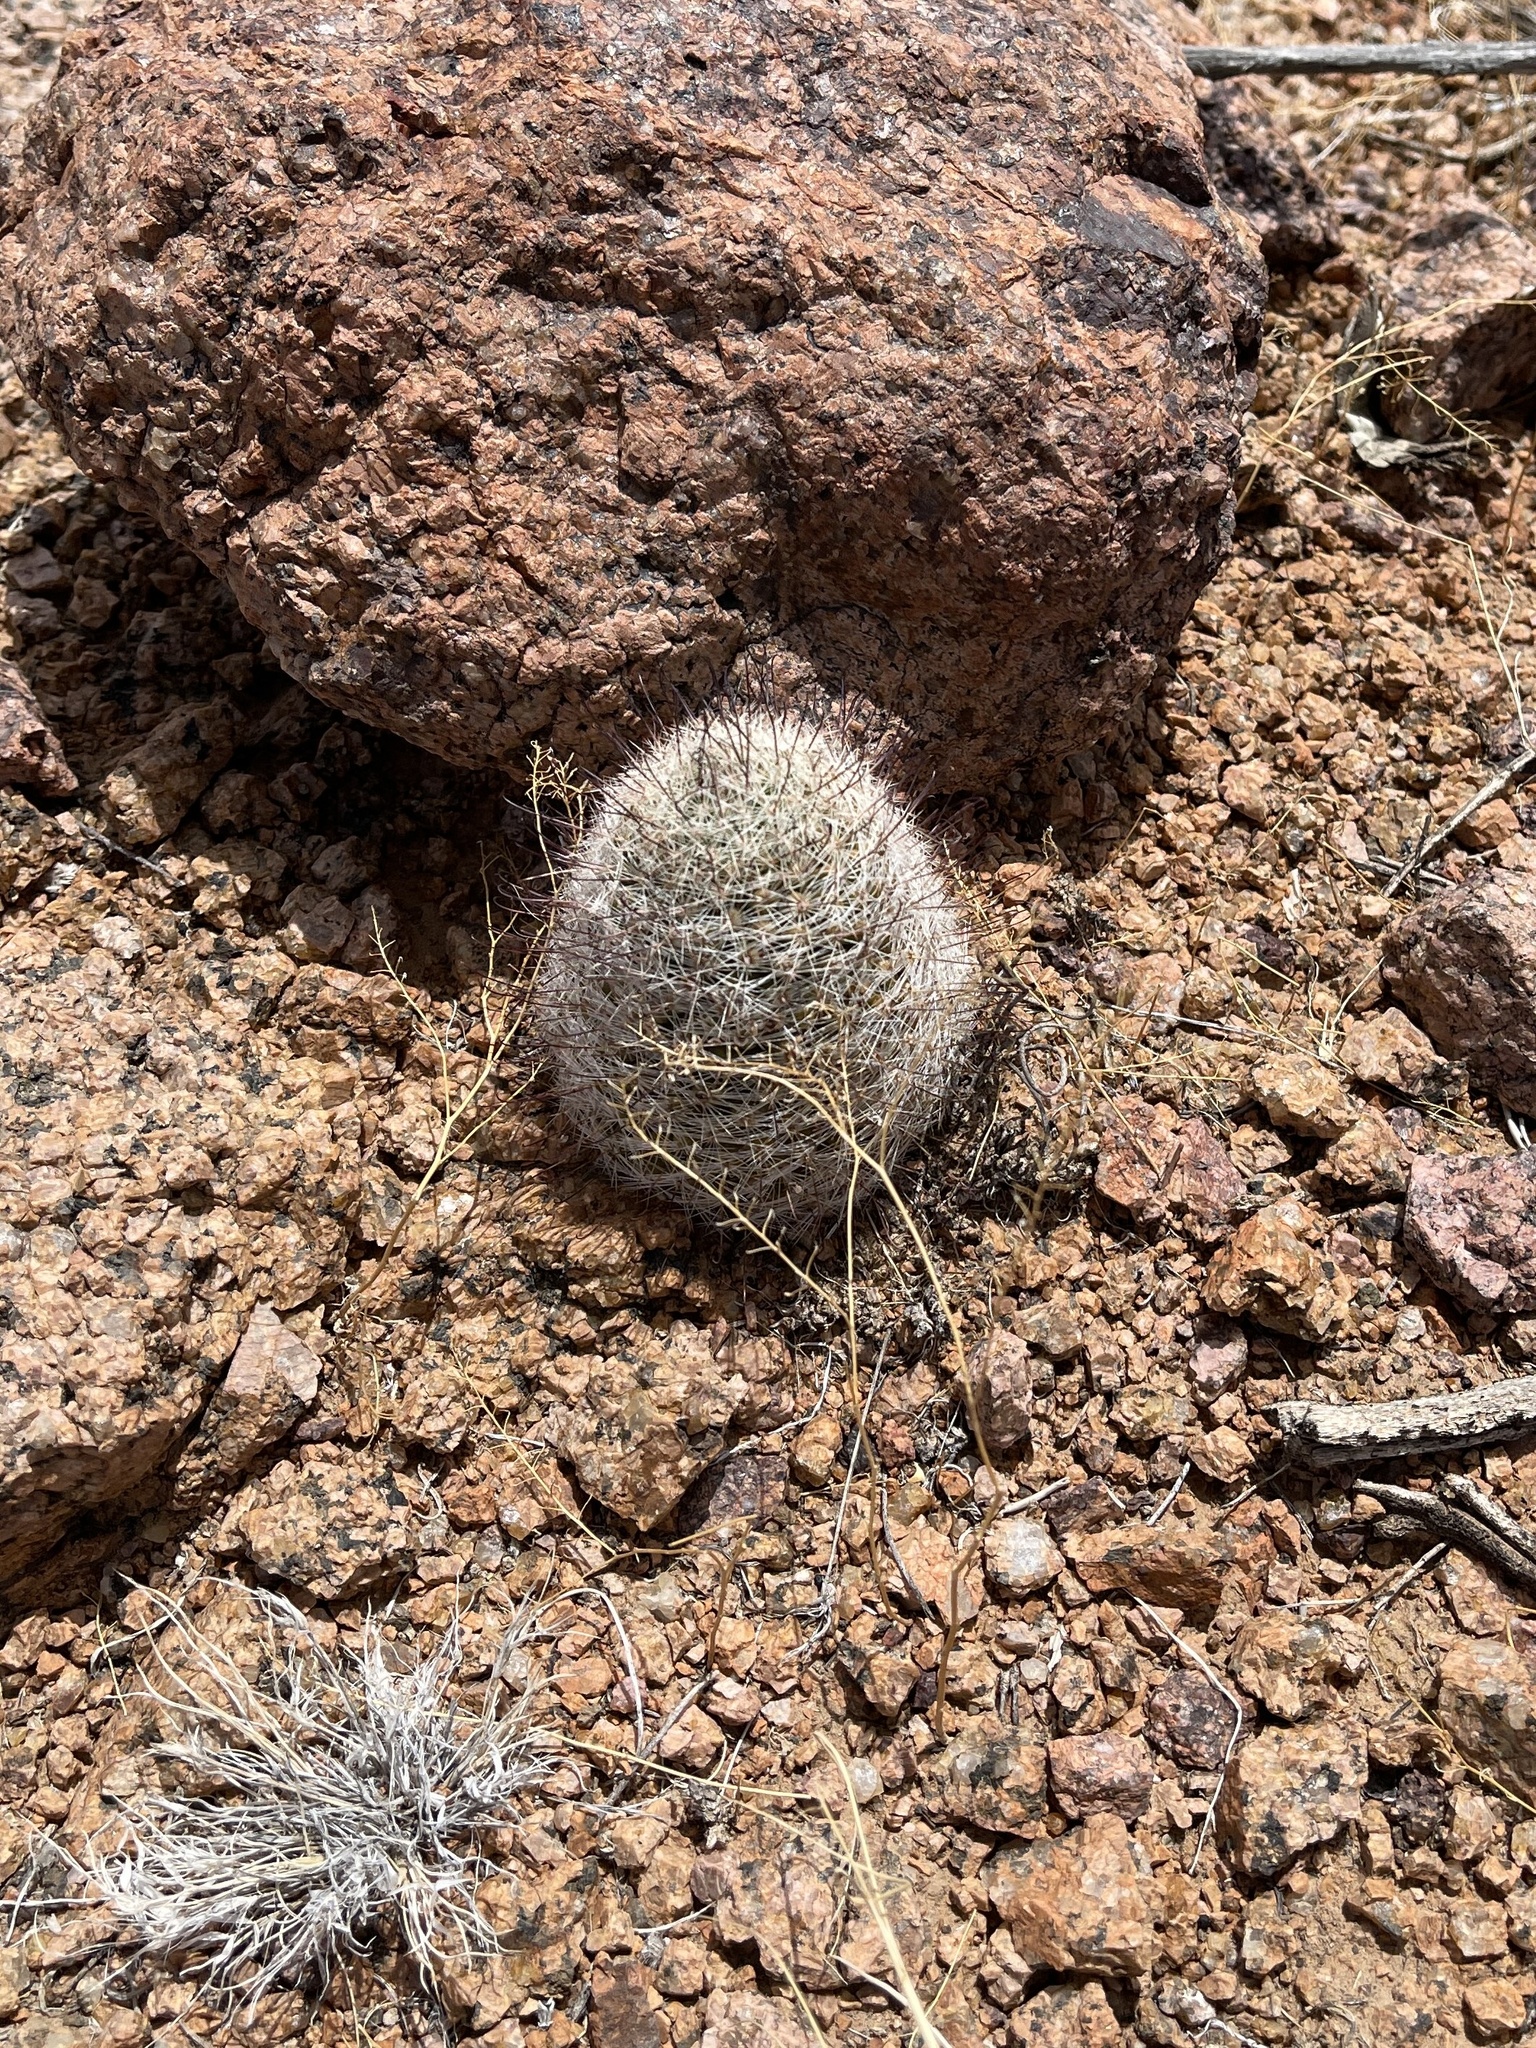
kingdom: Plantae
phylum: Tracheophyta
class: Magnoliopsida
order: Caryophyllales
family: Cactaceae
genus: Cochemiea
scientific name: Cochemiea grahamii
